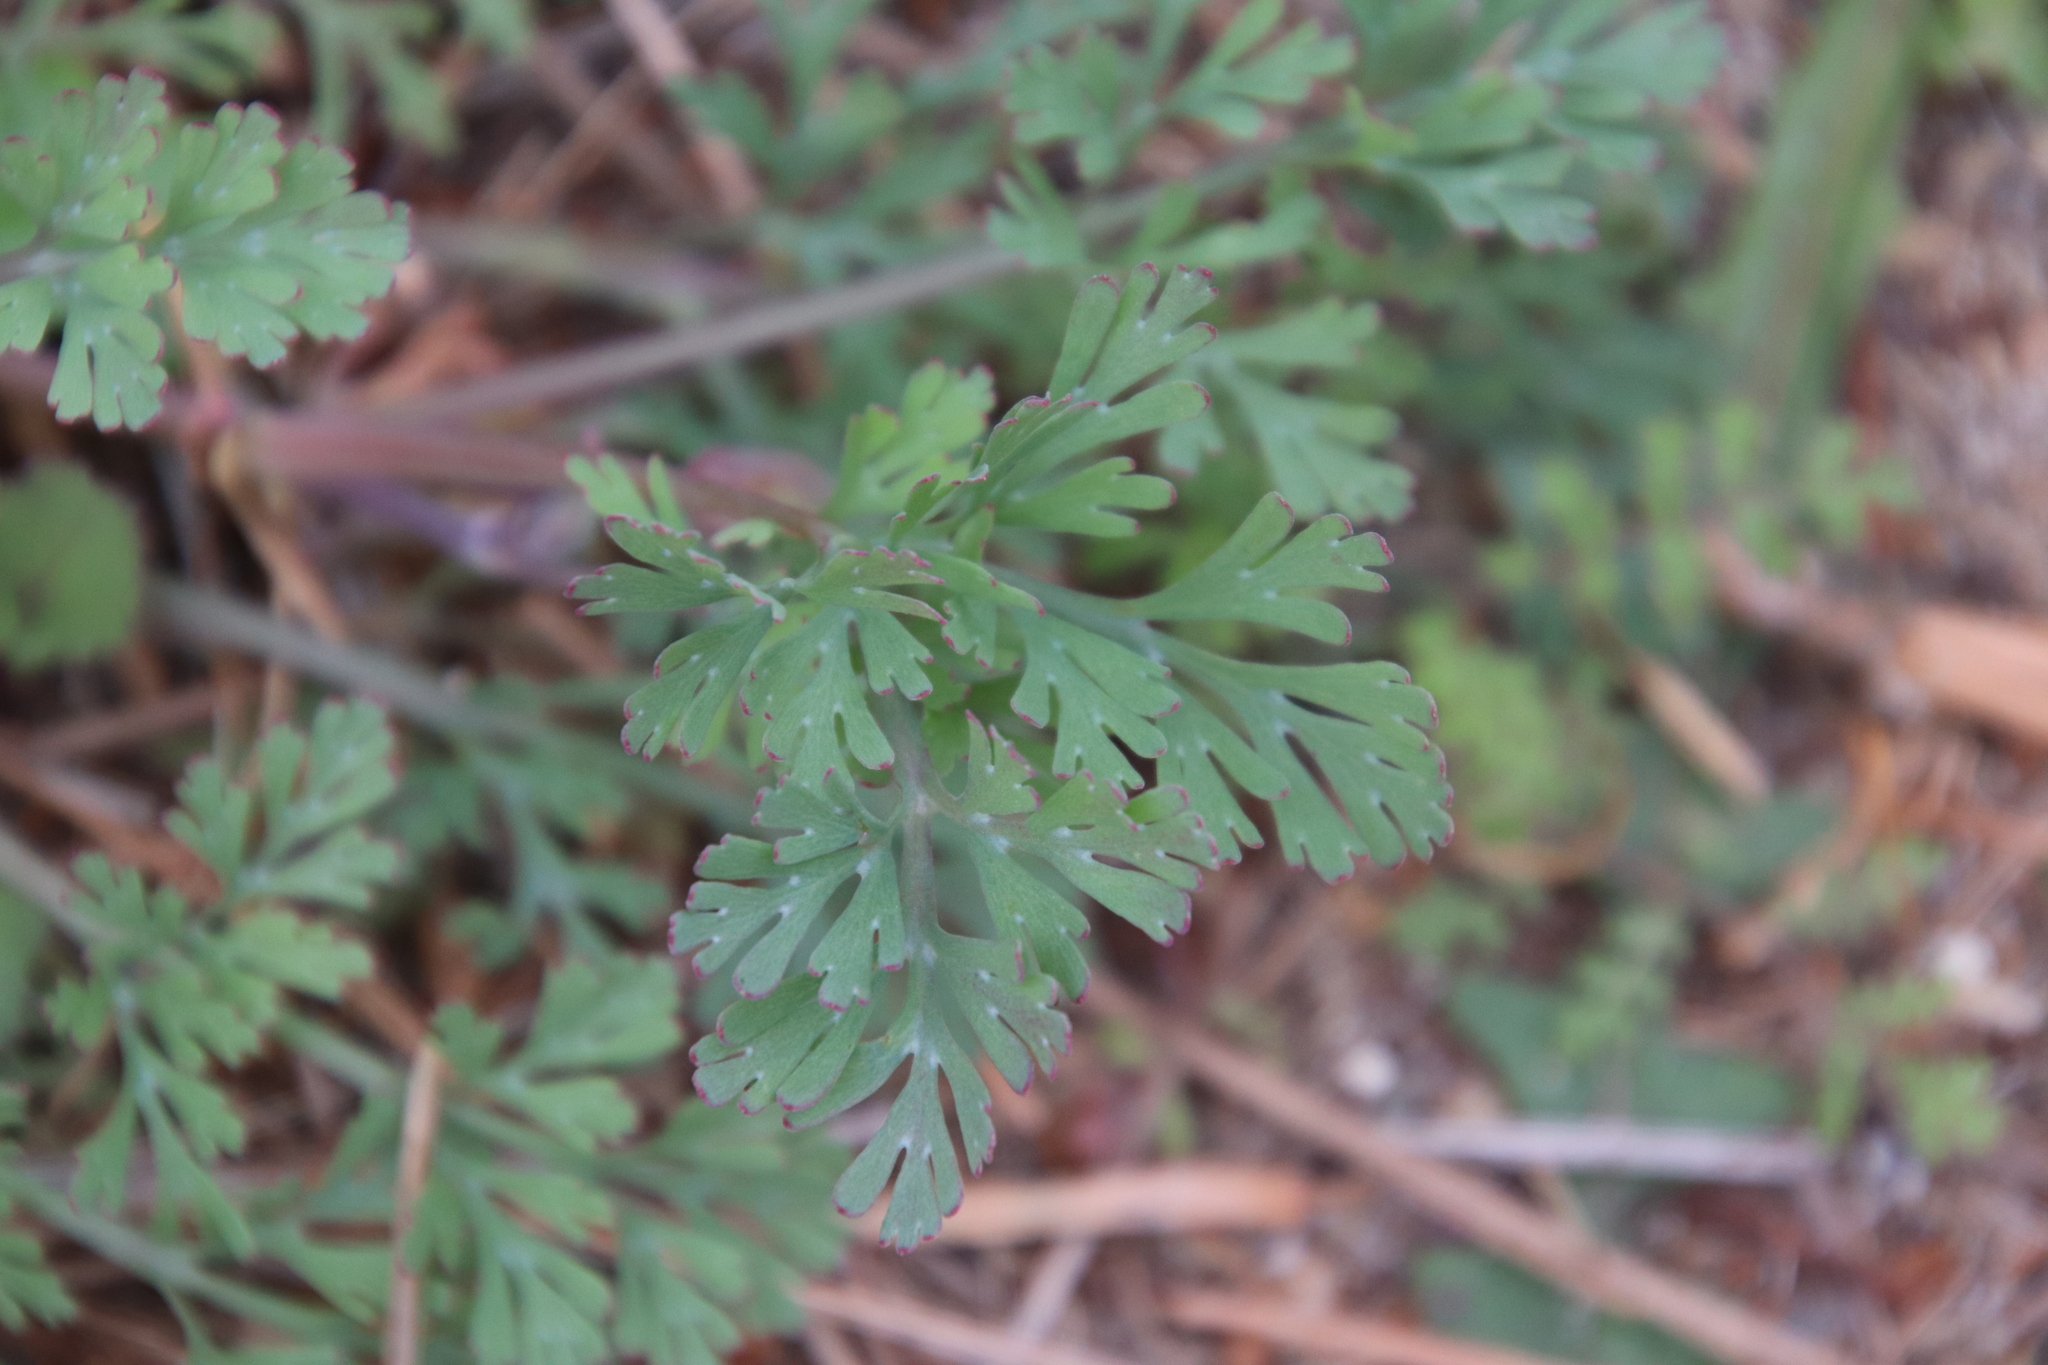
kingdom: Plantae
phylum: Tracheophyta
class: Magnoliopsida
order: Ranunculales
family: Papaveraceae
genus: Eschscholzia
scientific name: Eschscholzia californica
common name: California poppy
